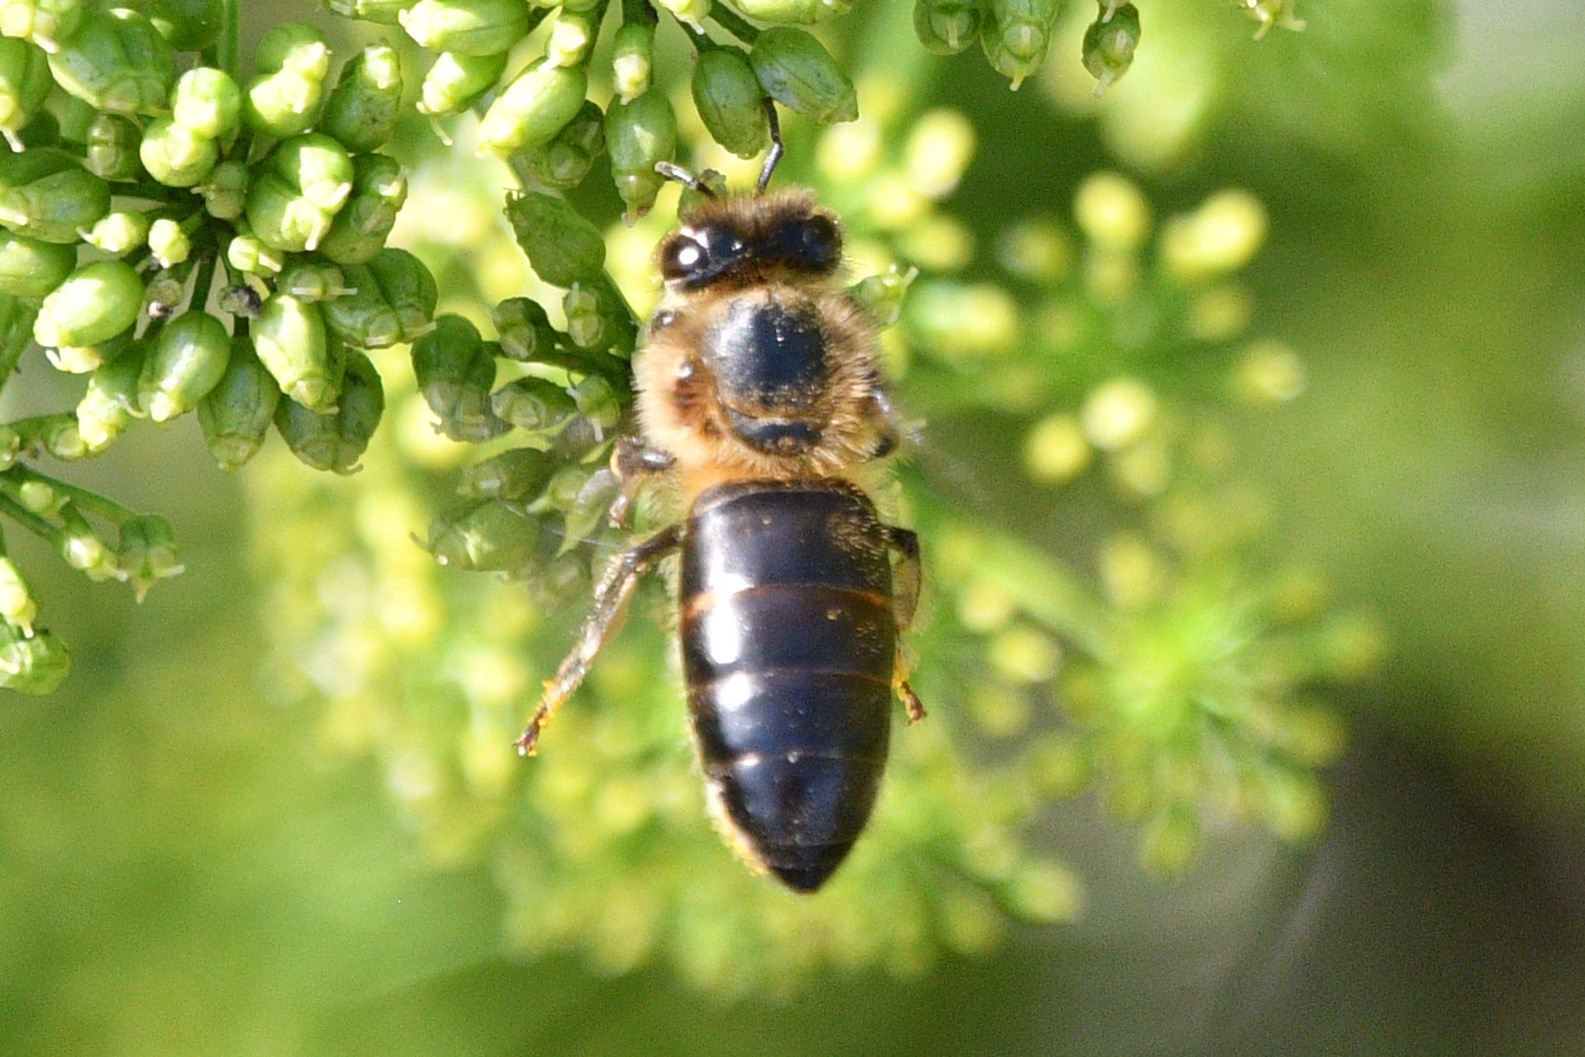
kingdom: Animalia
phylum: Arthropoda
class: Insecta
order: Hymenoptera
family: Apidae
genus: Apis
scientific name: Apis mellifera
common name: Honey bee
